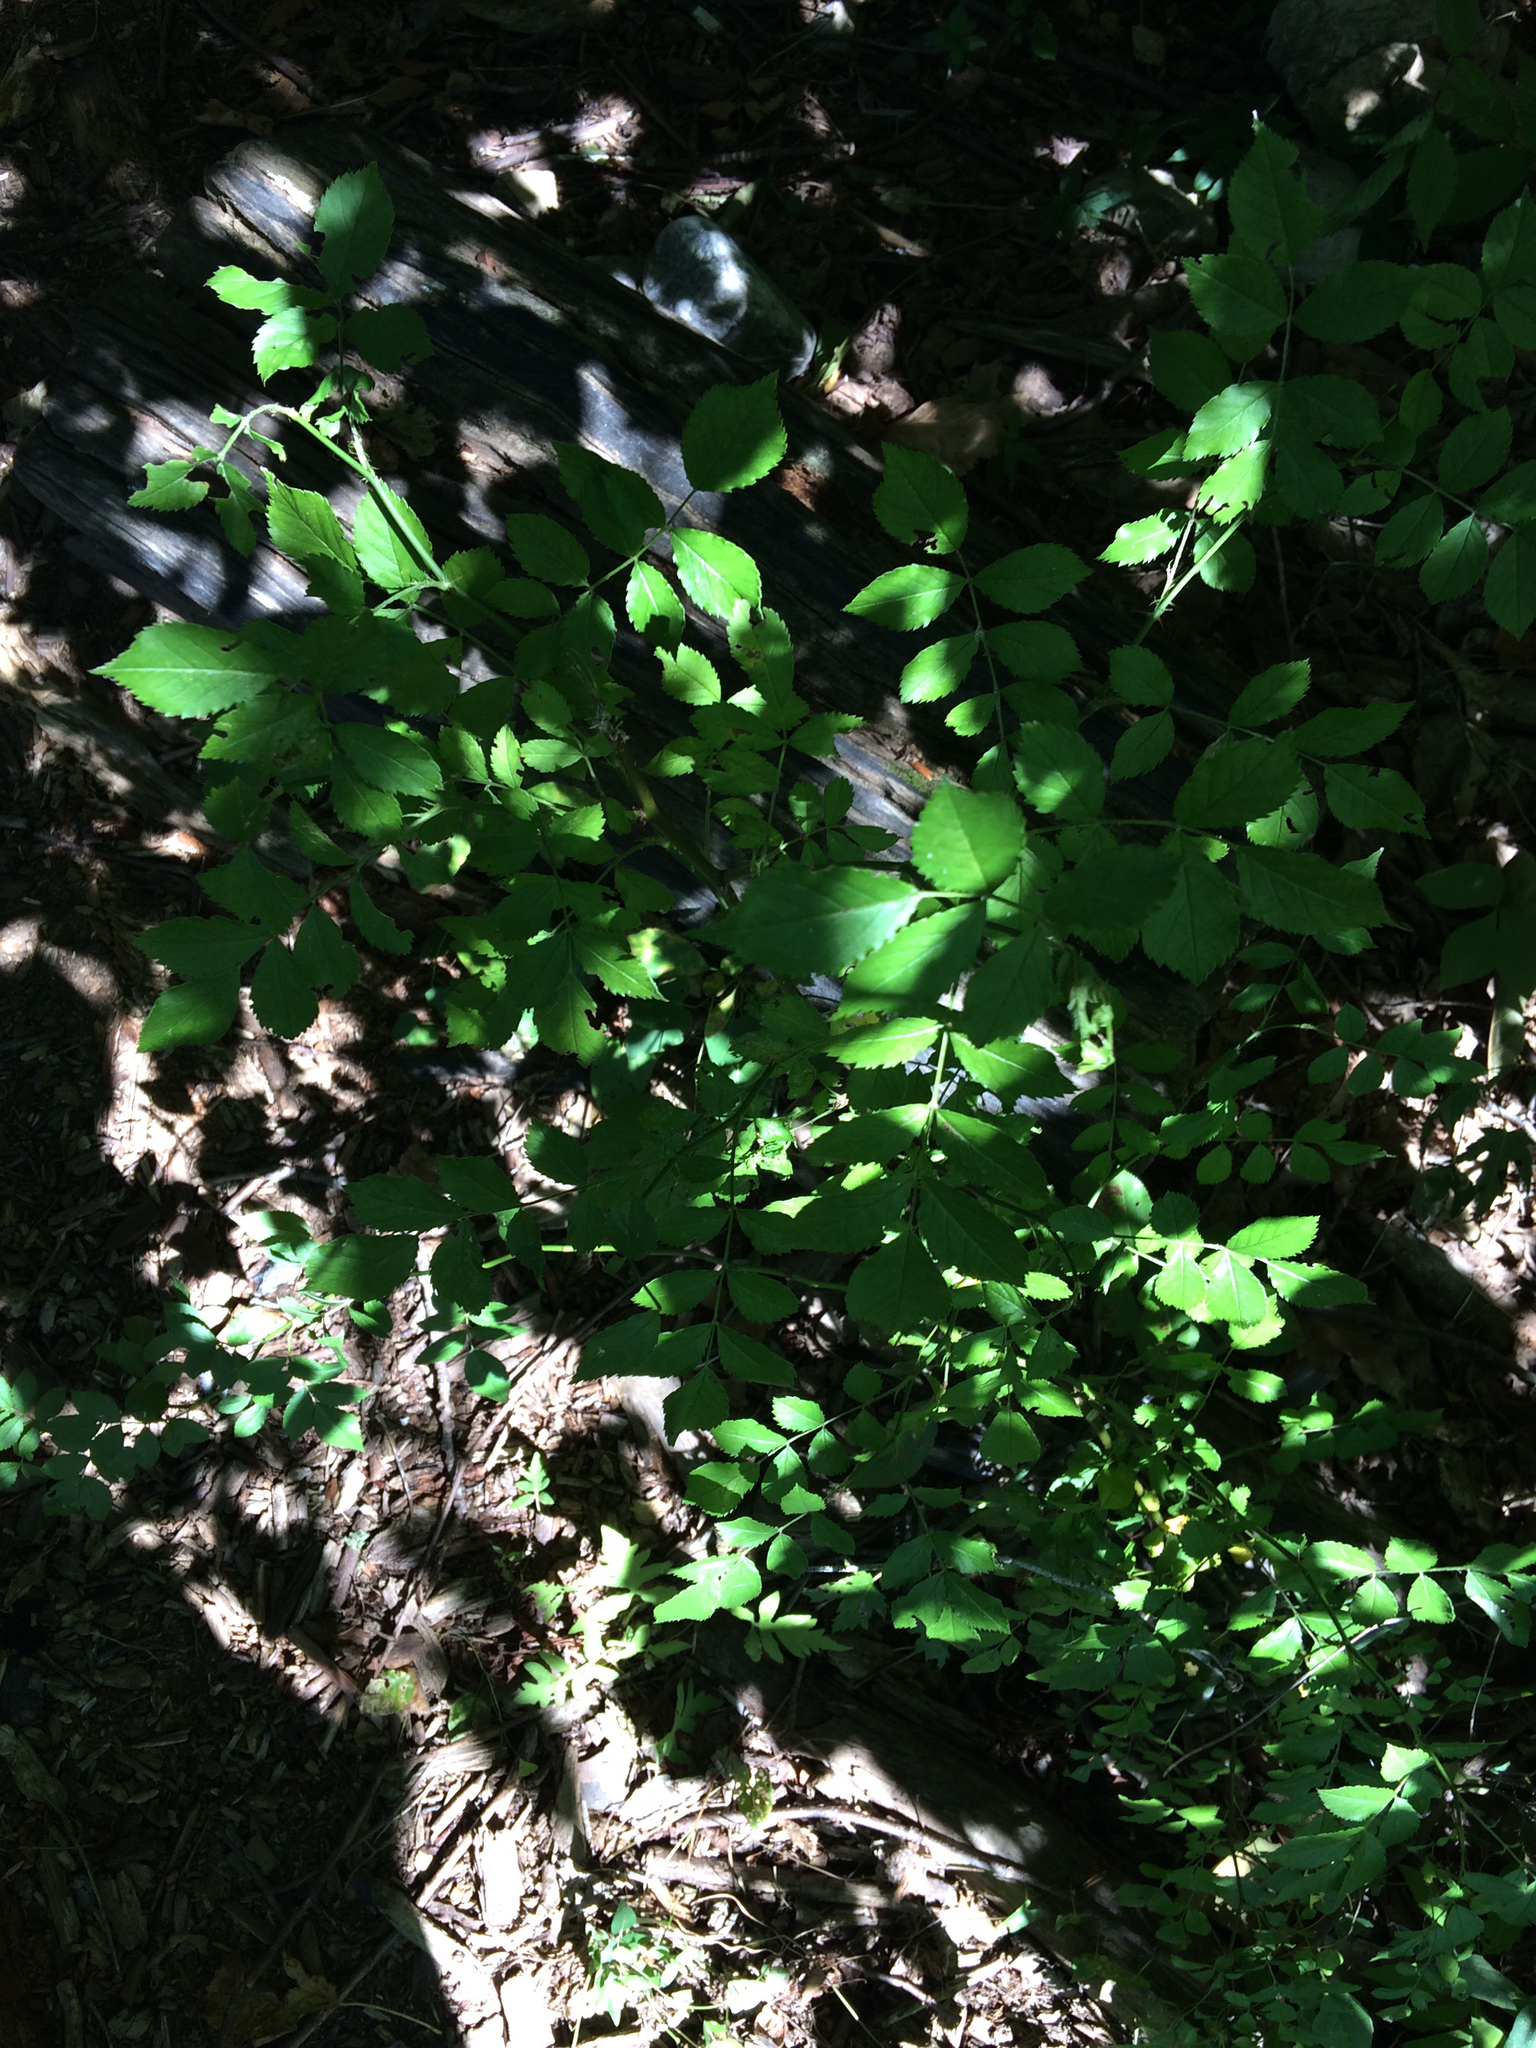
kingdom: Plantae
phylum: Tracheophyta
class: Magnoliopsida
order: Rosales
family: Rosaceae
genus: Rosa
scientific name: Rosa multiflora
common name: Multiflora rose
